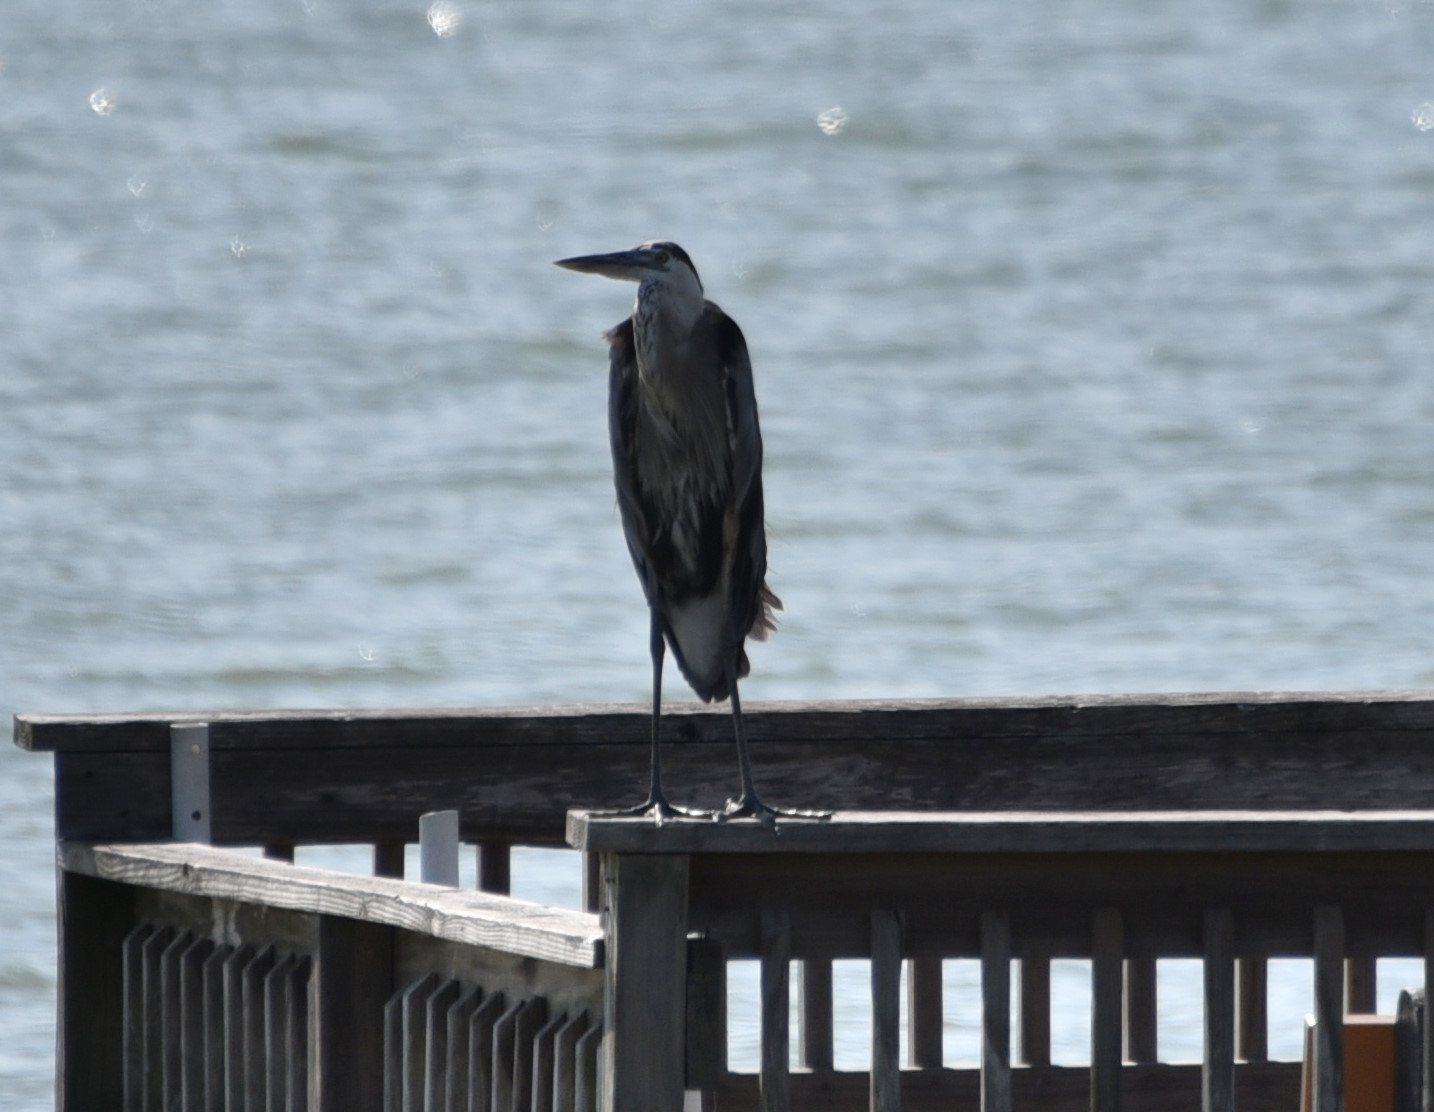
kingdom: Animalia
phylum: Chordata
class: Aves
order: Pelecaniformes
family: Ardeidae
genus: Ardea
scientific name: Ardea herodias
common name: Great blue heron
